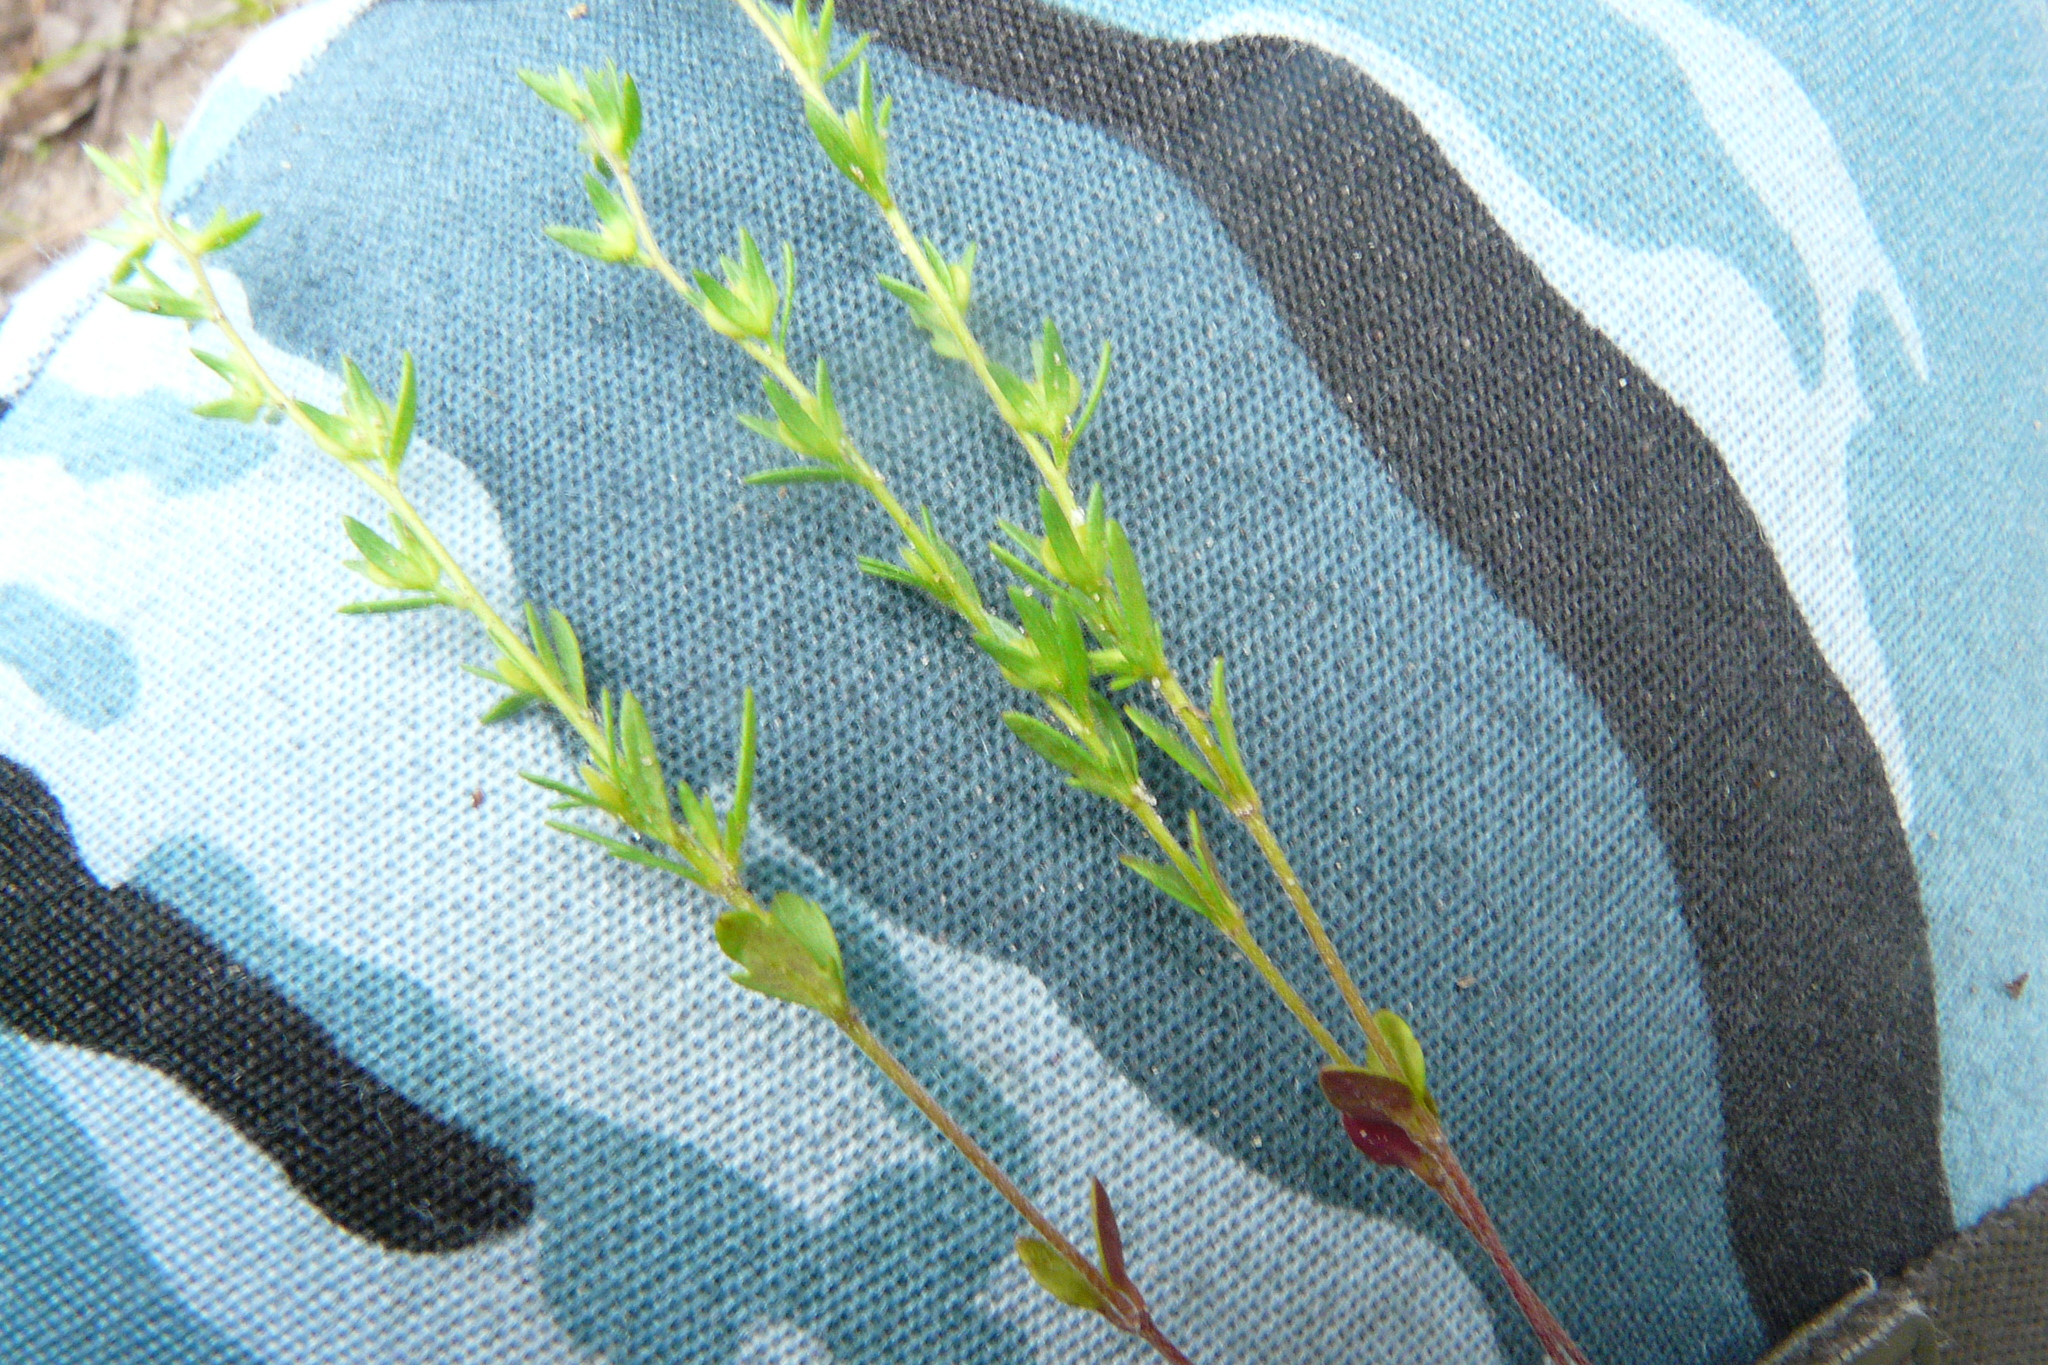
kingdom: Plantae
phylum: Tracheophyta
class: Magnoliopsida
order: Lamiales
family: Plantaginaceae
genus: Veronica
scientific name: Veronica verna
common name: Spring speedwell
